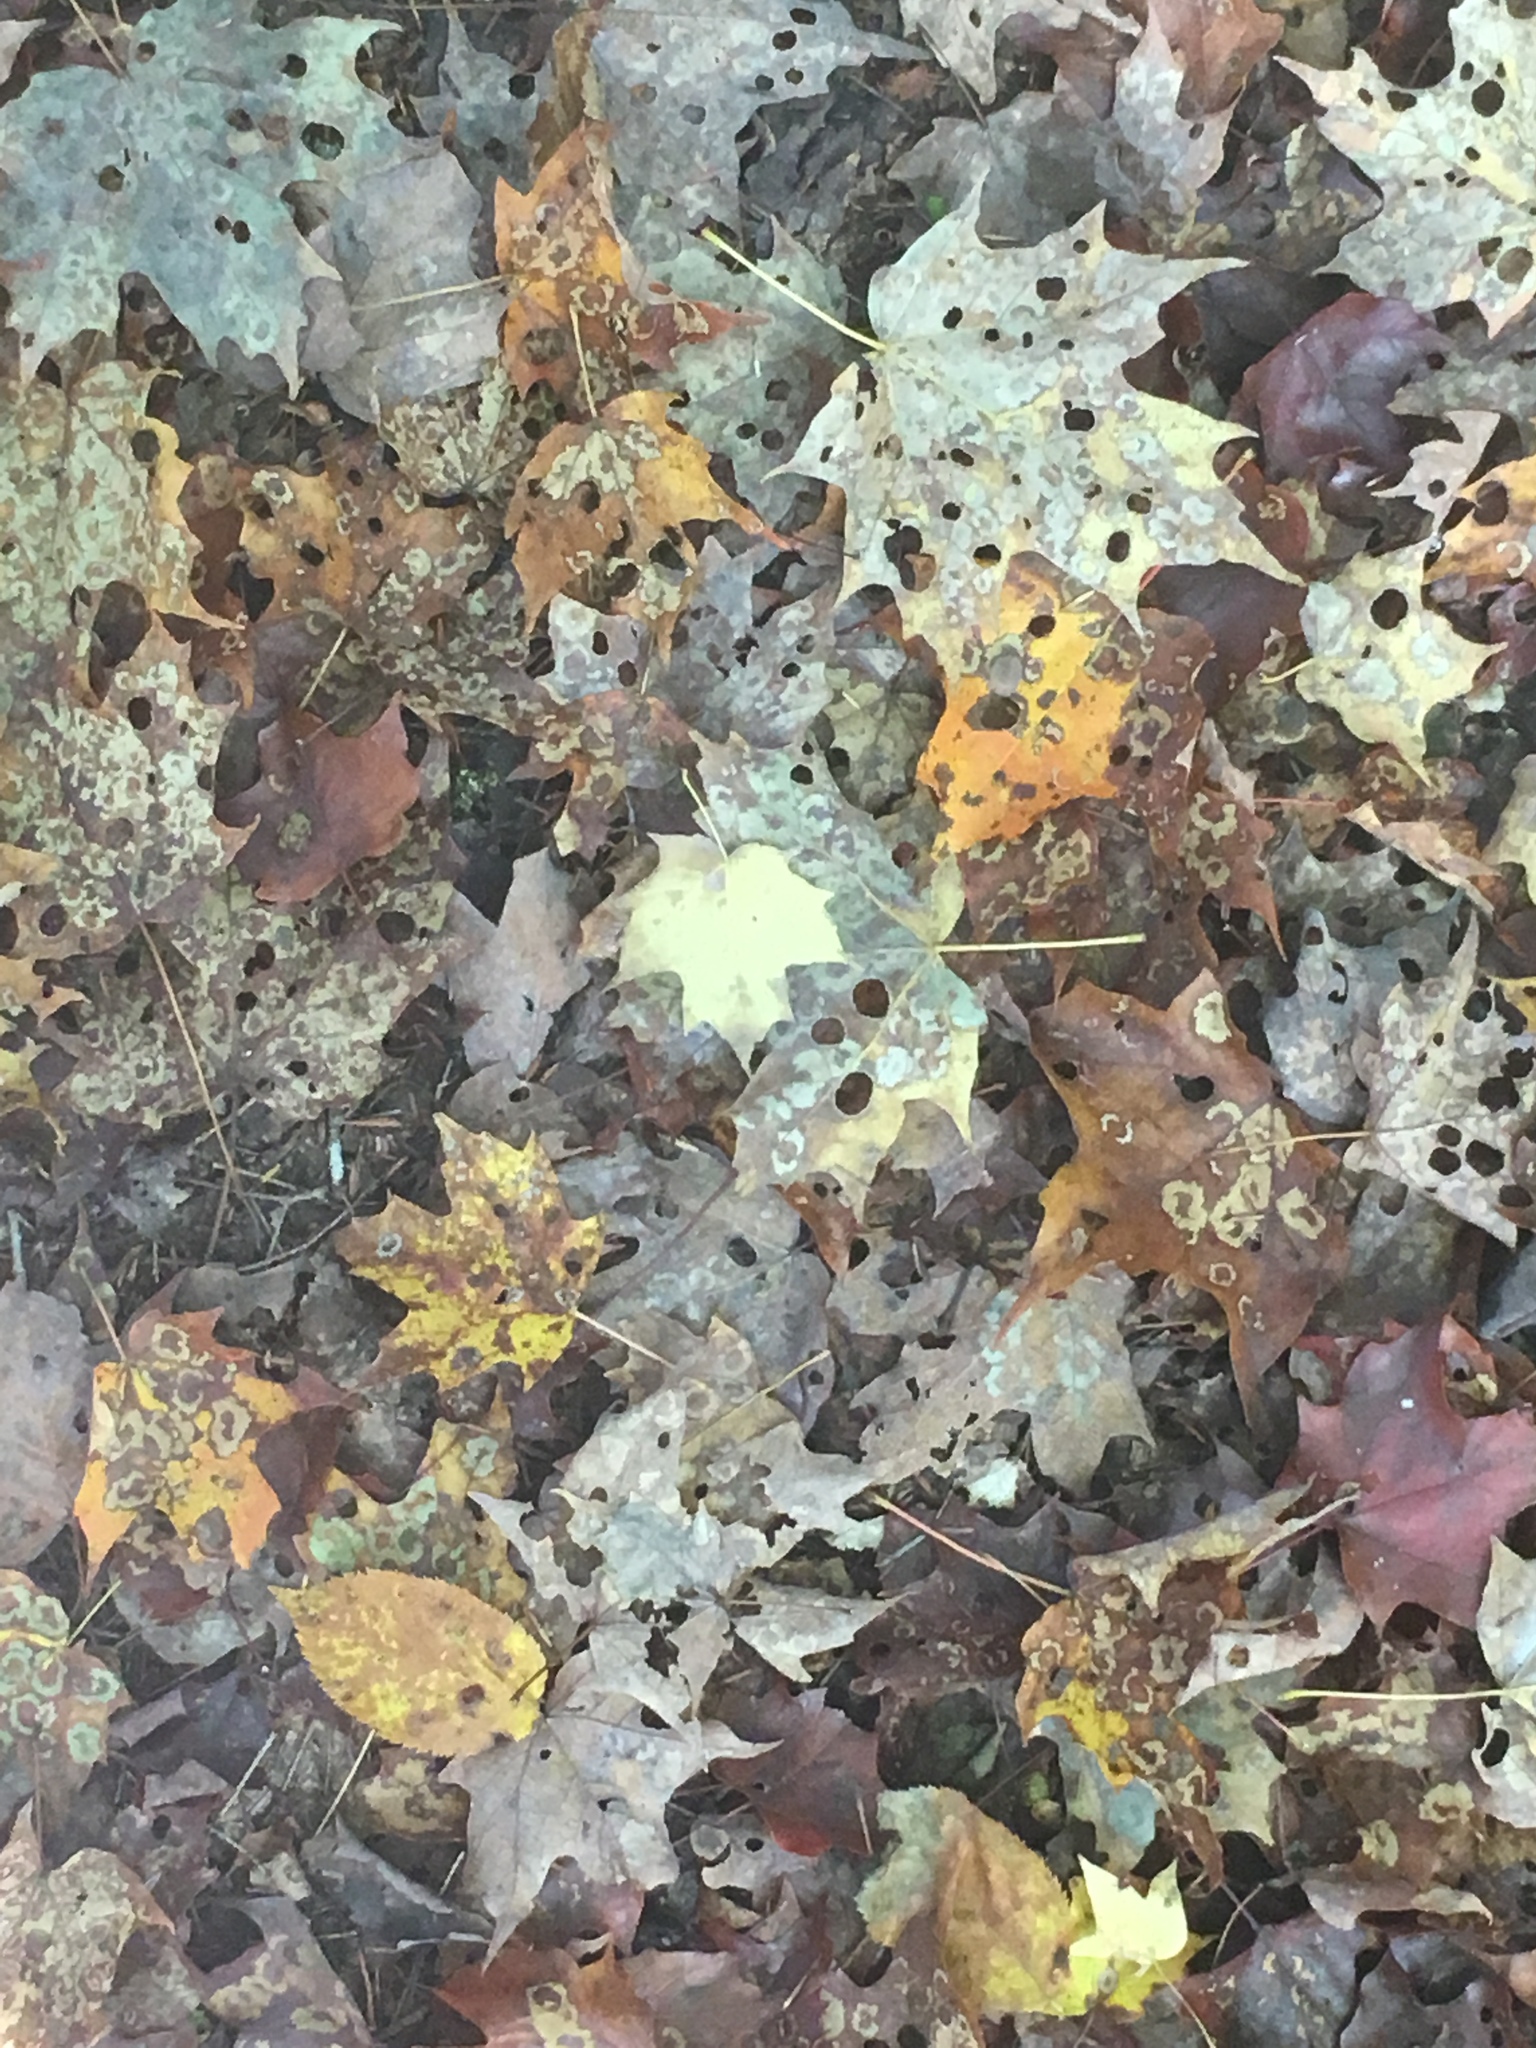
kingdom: Animalia
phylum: Arthropoda
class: Insecta
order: Lepidoptera
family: Incurvariidae
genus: Paraclemensia
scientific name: Paraclemensia acerifoliella
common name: Maple leafcutter
